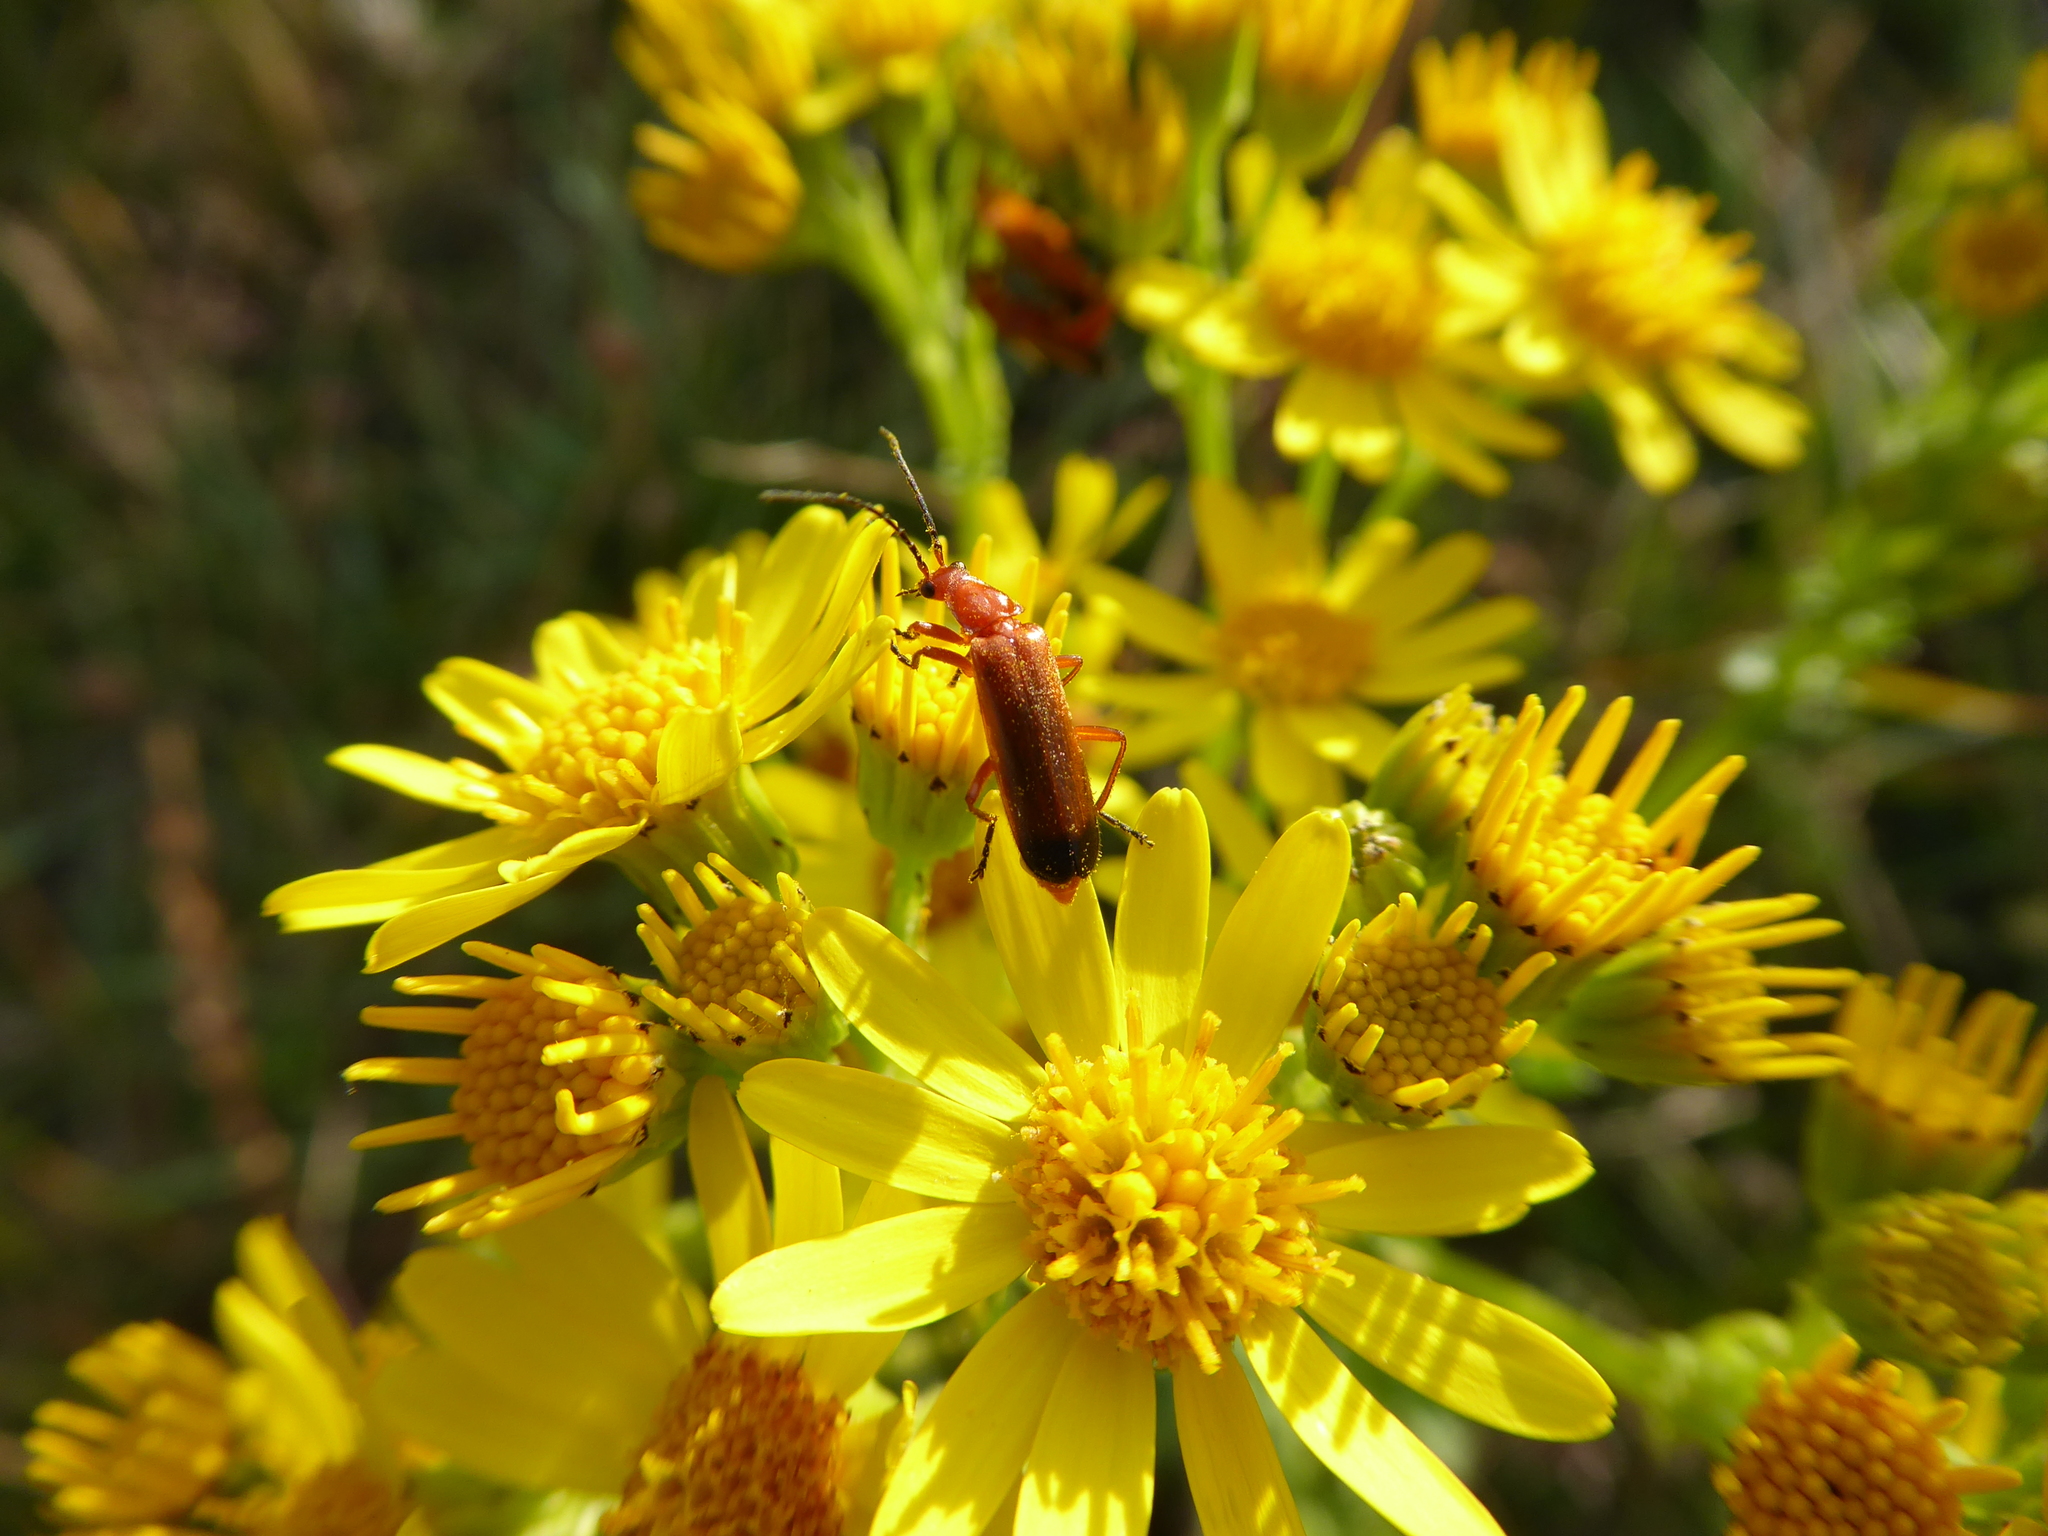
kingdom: Animalia
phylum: Arthropoda
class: Insecta
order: Coleoptera
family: Cantharidae
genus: Rhagonycha
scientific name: Rhagonycha fulva
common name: Common red soldier beetle
